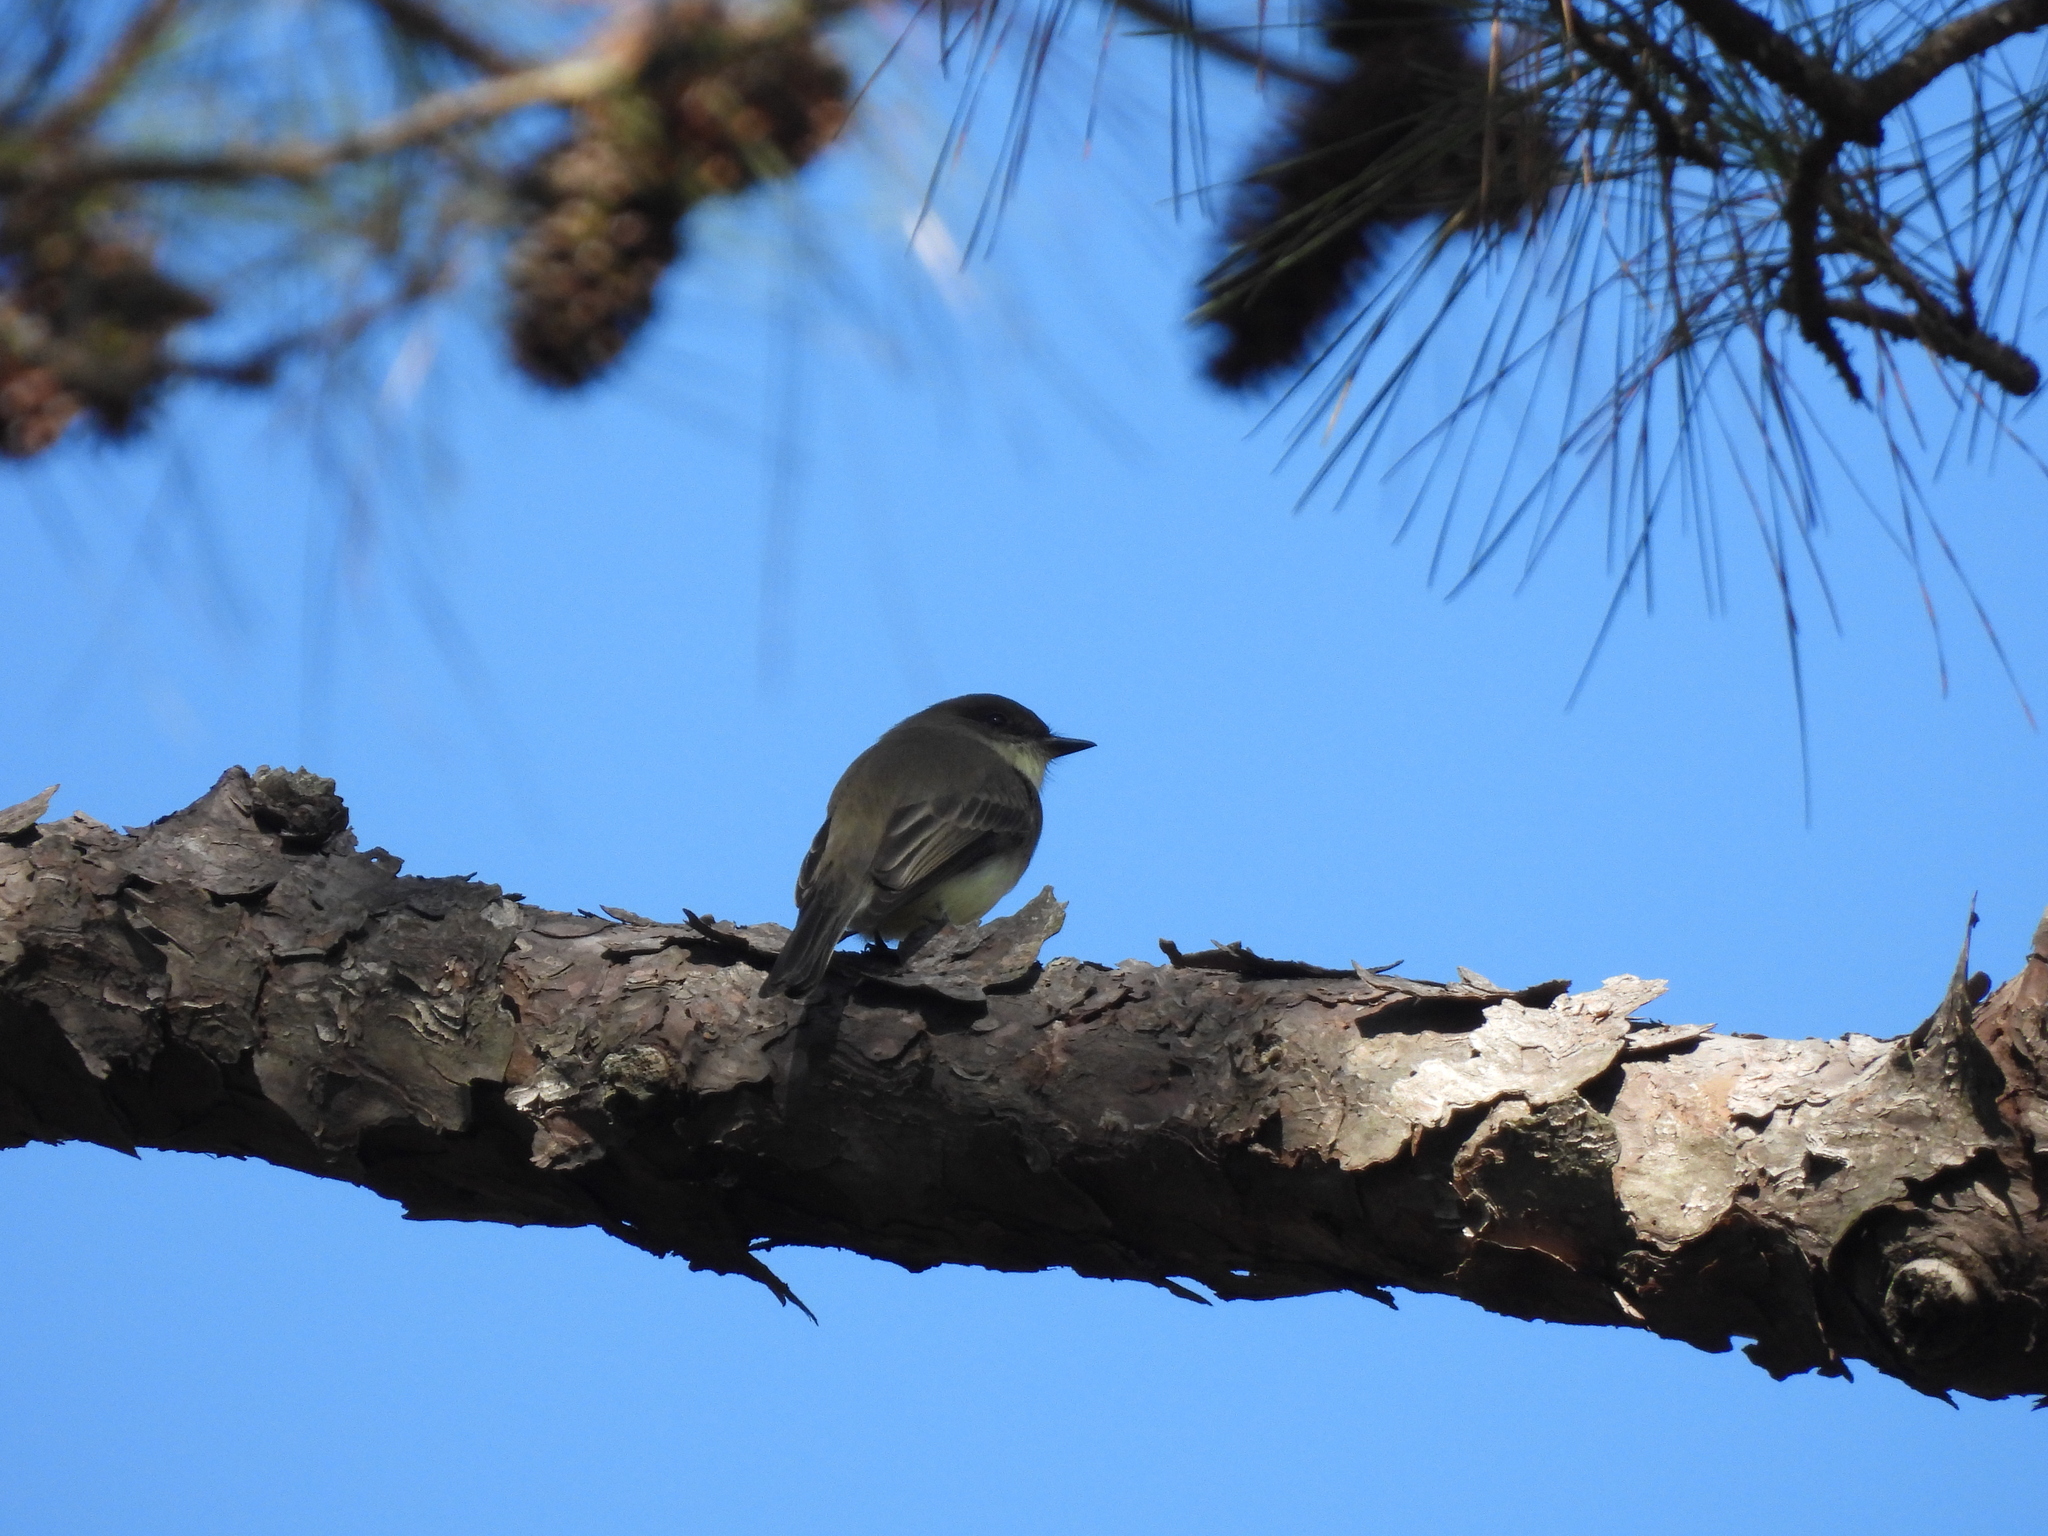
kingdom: Animalia
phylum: Chordata
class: Aves
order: Passeriformes
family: Tyrannidae
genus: Sayornis
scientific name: Sayornis phoebe
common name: Eastern phoebe
